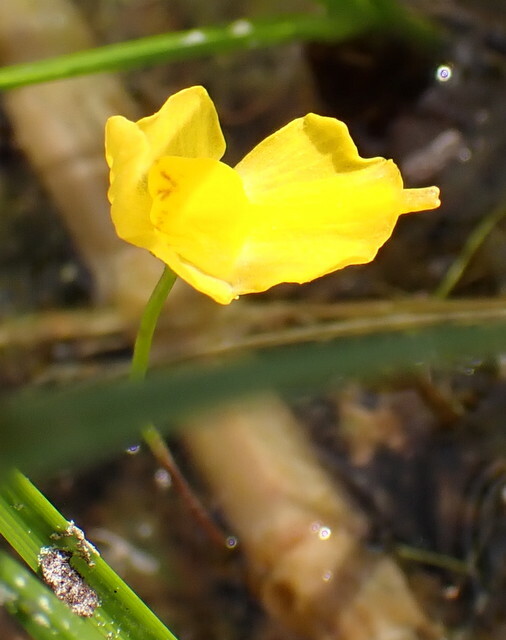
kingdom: Plantae
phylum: Tracheophyta
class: Magnoliopsida
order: Lamiales
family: Lentibulariaceae
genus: Utricularia
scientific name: Utricularia gibba
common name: Humped bladderwort
